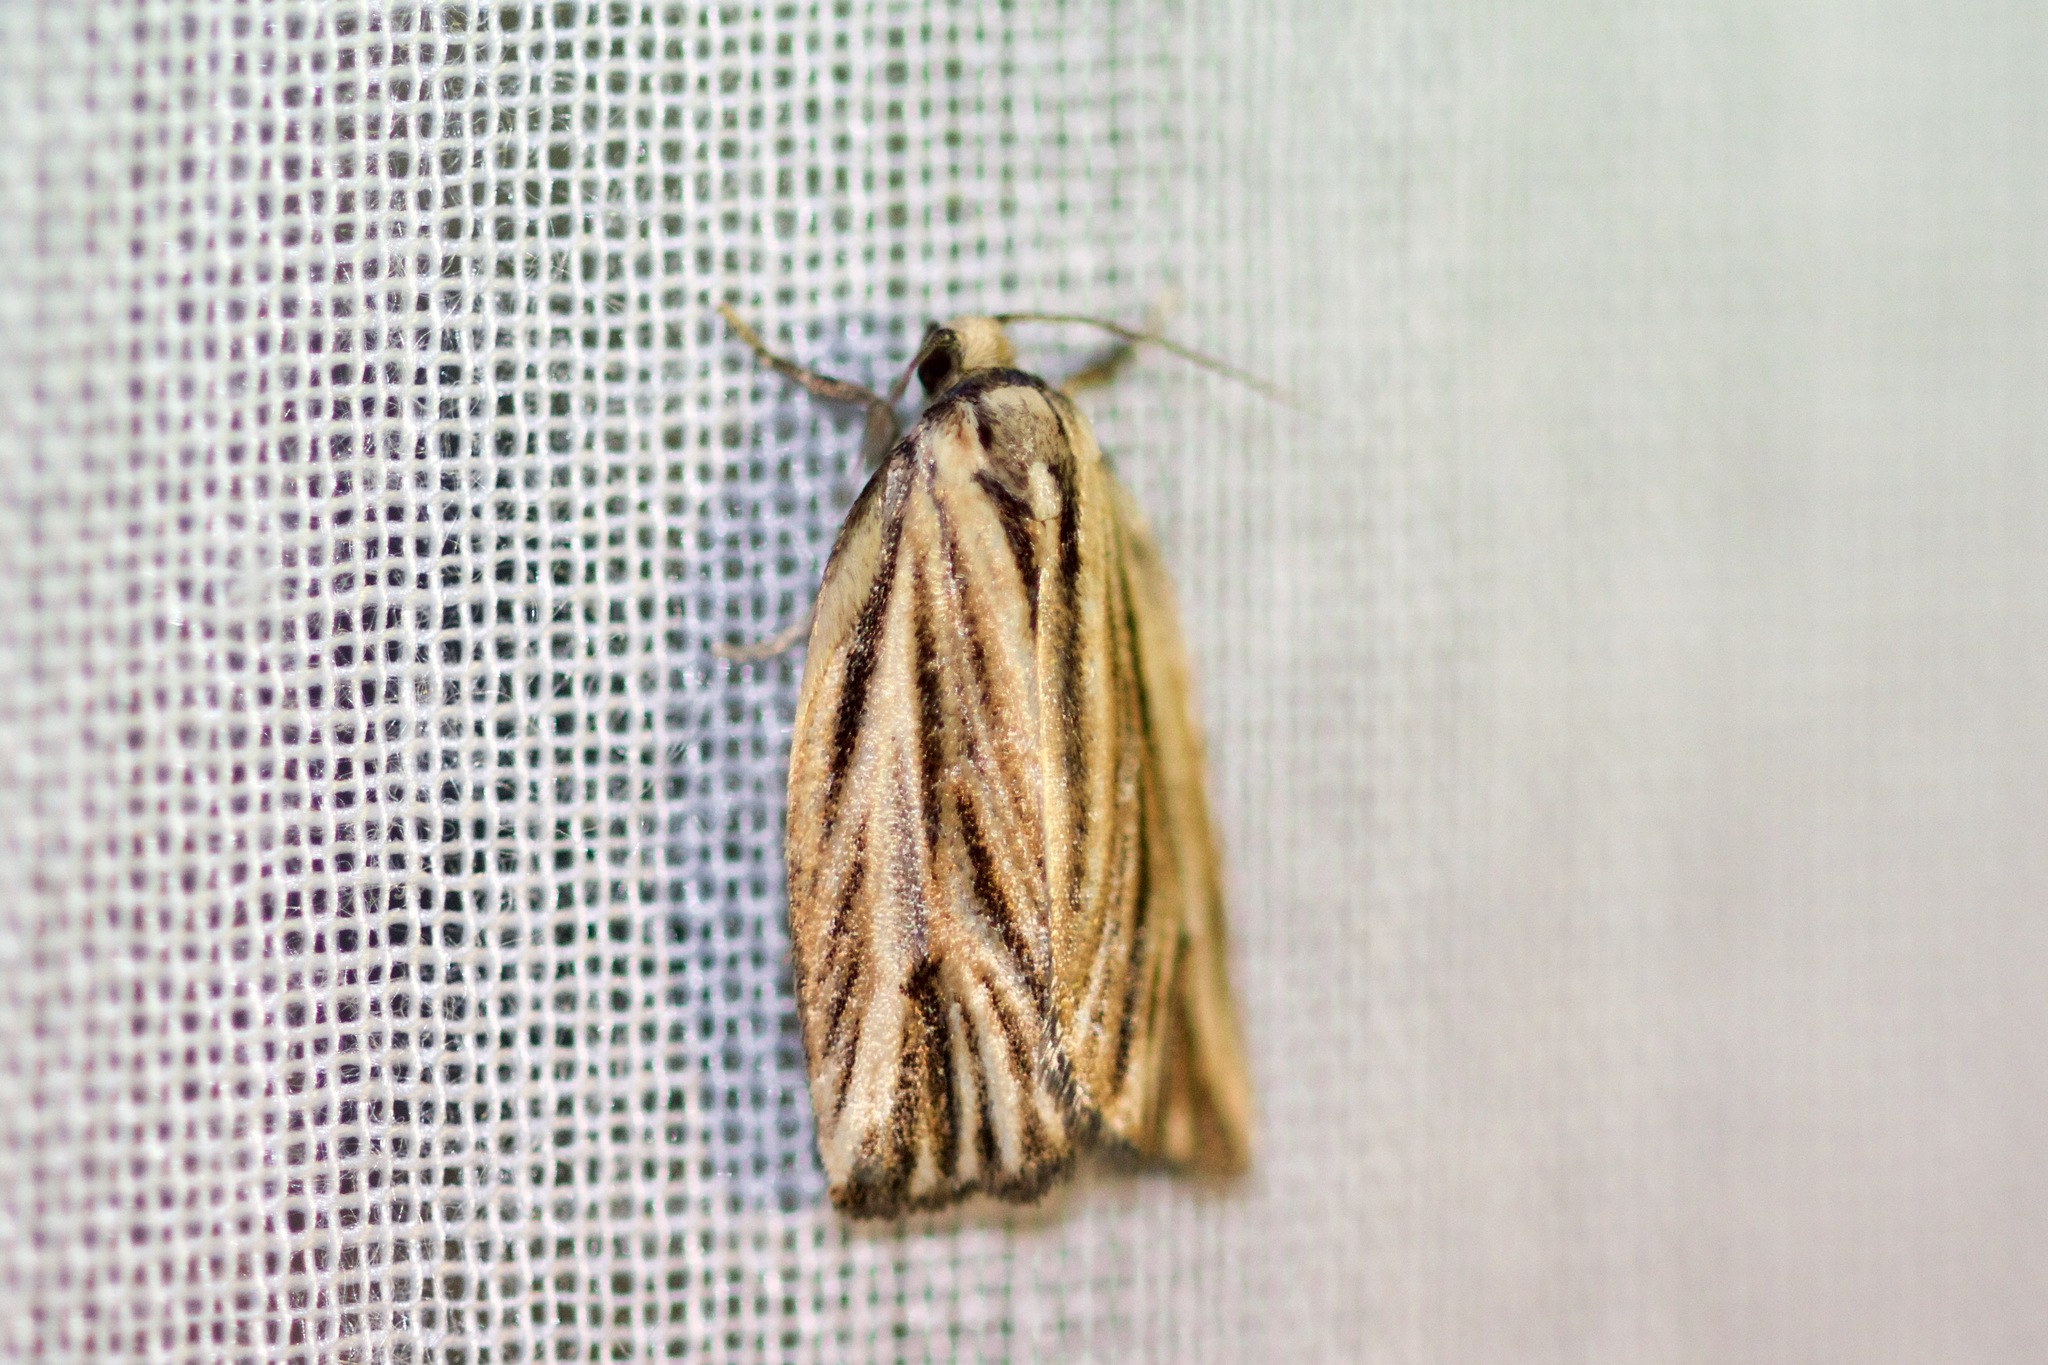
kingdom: Animalia
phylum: Arthropoda
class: Insecta
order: Lepidoptera
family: Tortricidae
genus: Archips
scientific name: Archips strianus
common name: Striated tortrix moth
